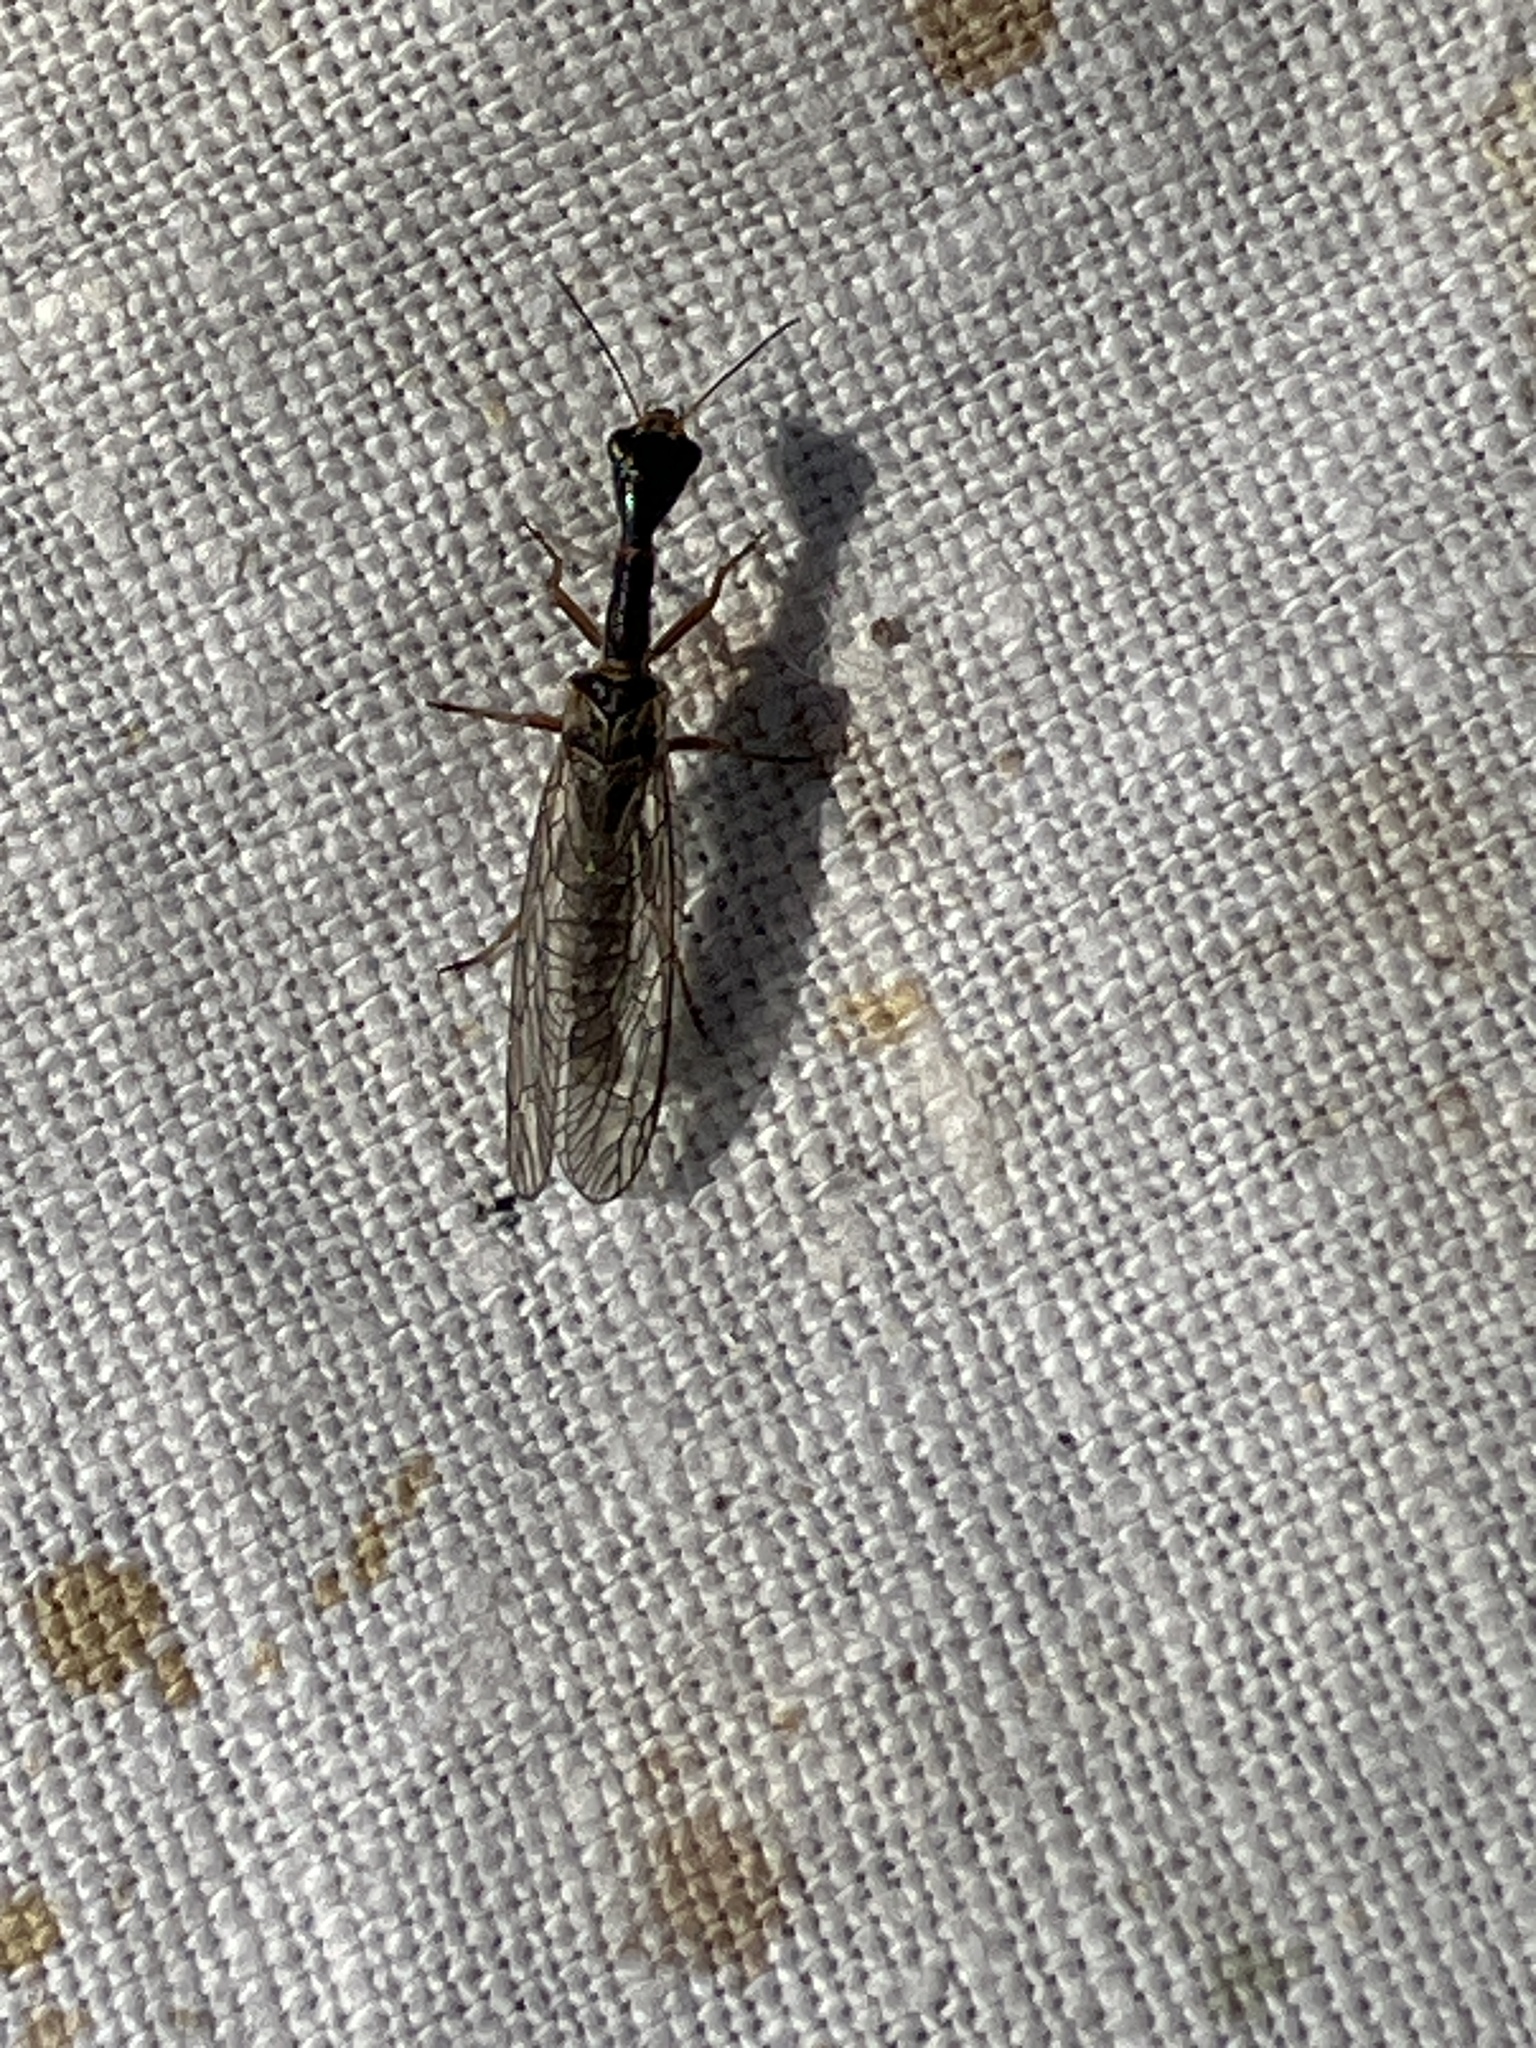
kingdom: Animalia
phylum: Arthropoda
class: Insecta
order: Raphidioptera
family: Raphidiidae
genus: Xanthostigma
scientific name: Xanthostigma xanthostigma
